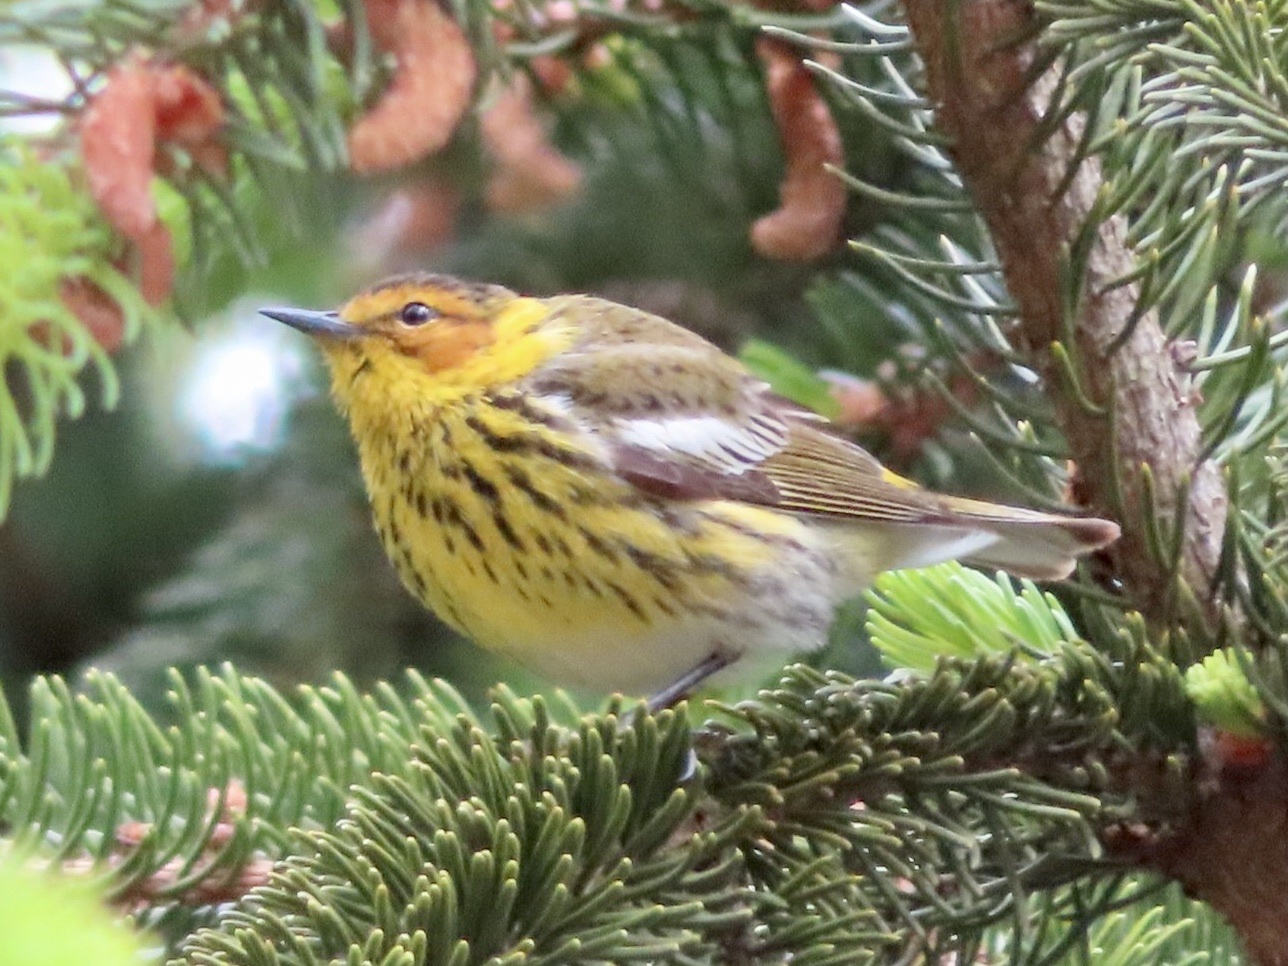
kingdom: Animalia
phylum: Chordata
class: Aves
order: Passeriformes
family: Parulidae
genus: Setophaga
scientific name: Setophaga tigrina
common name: Cape may warbler
